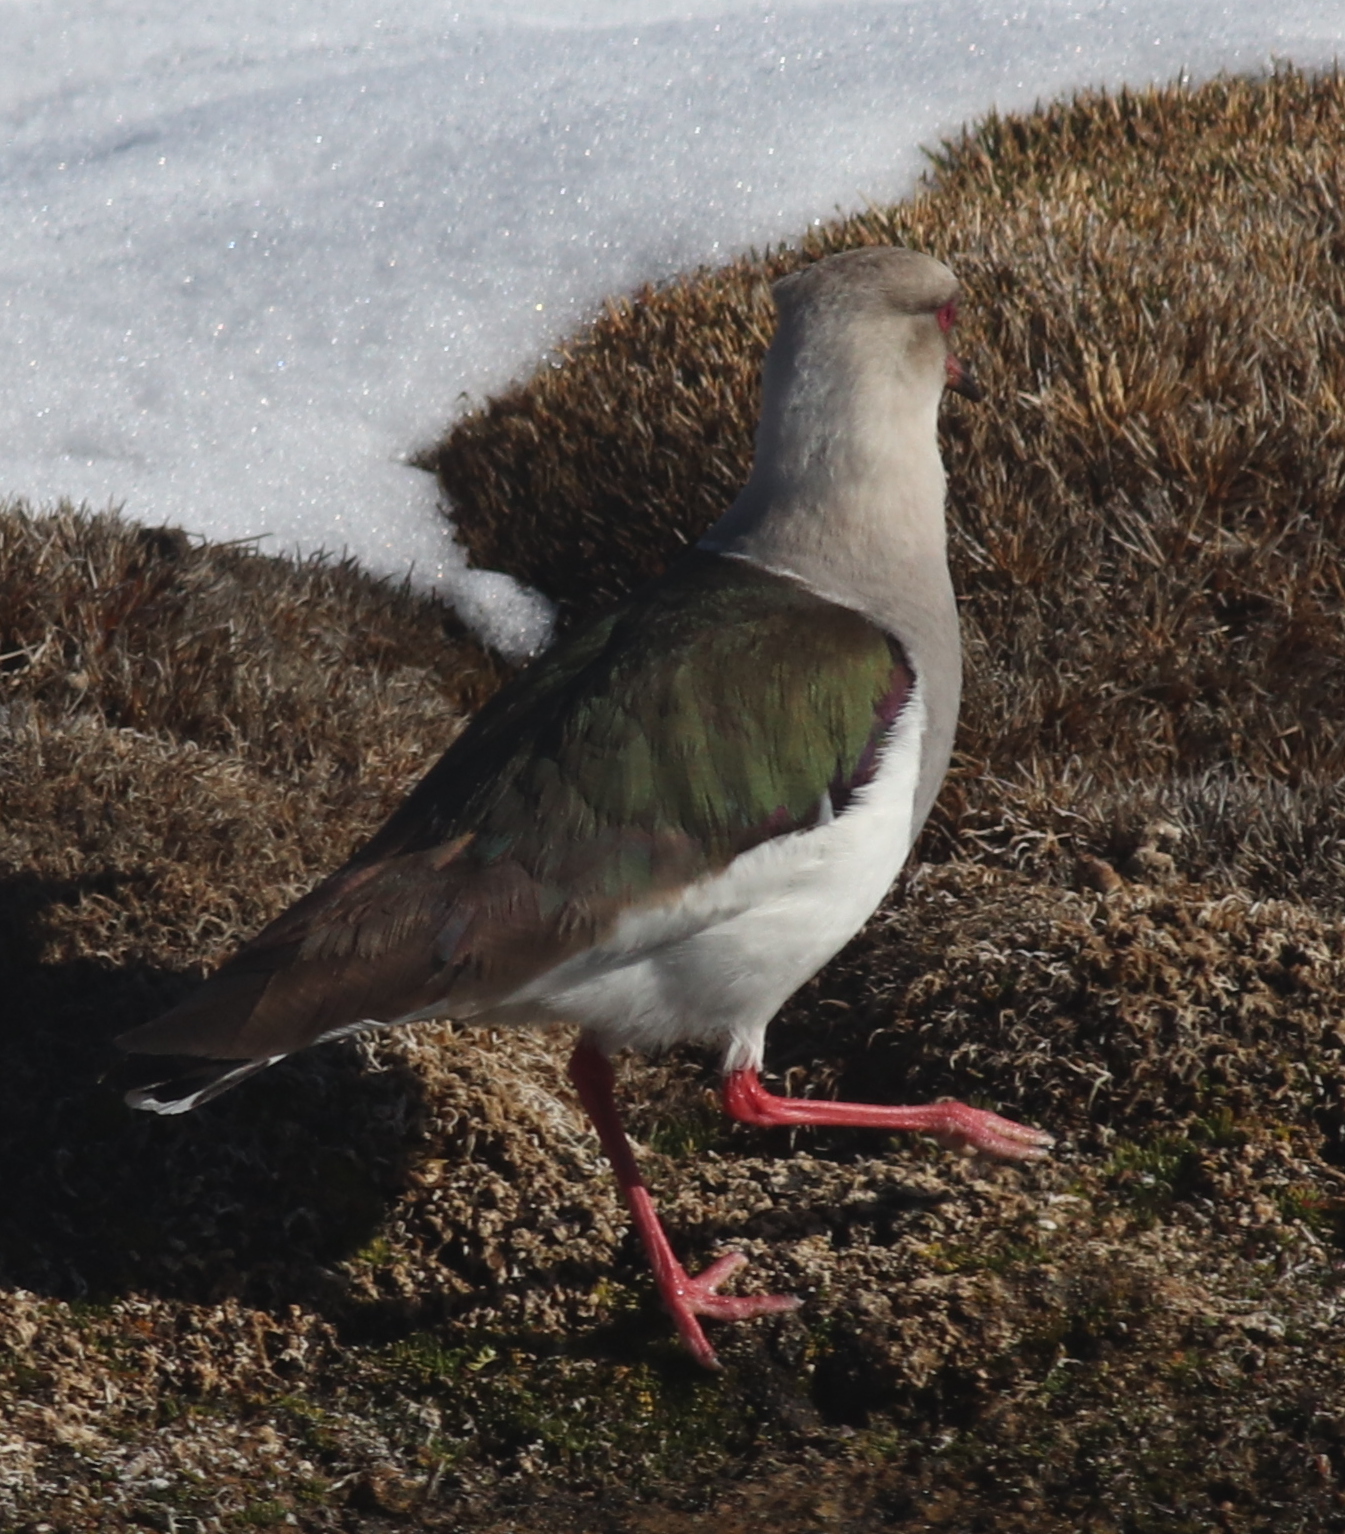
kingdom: Animalia
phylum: Chordata
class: Aves
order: Charadriiformes
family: Charadriidae
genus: Vanellus
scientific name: Vanellus resplendens
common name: Andean lapwing
